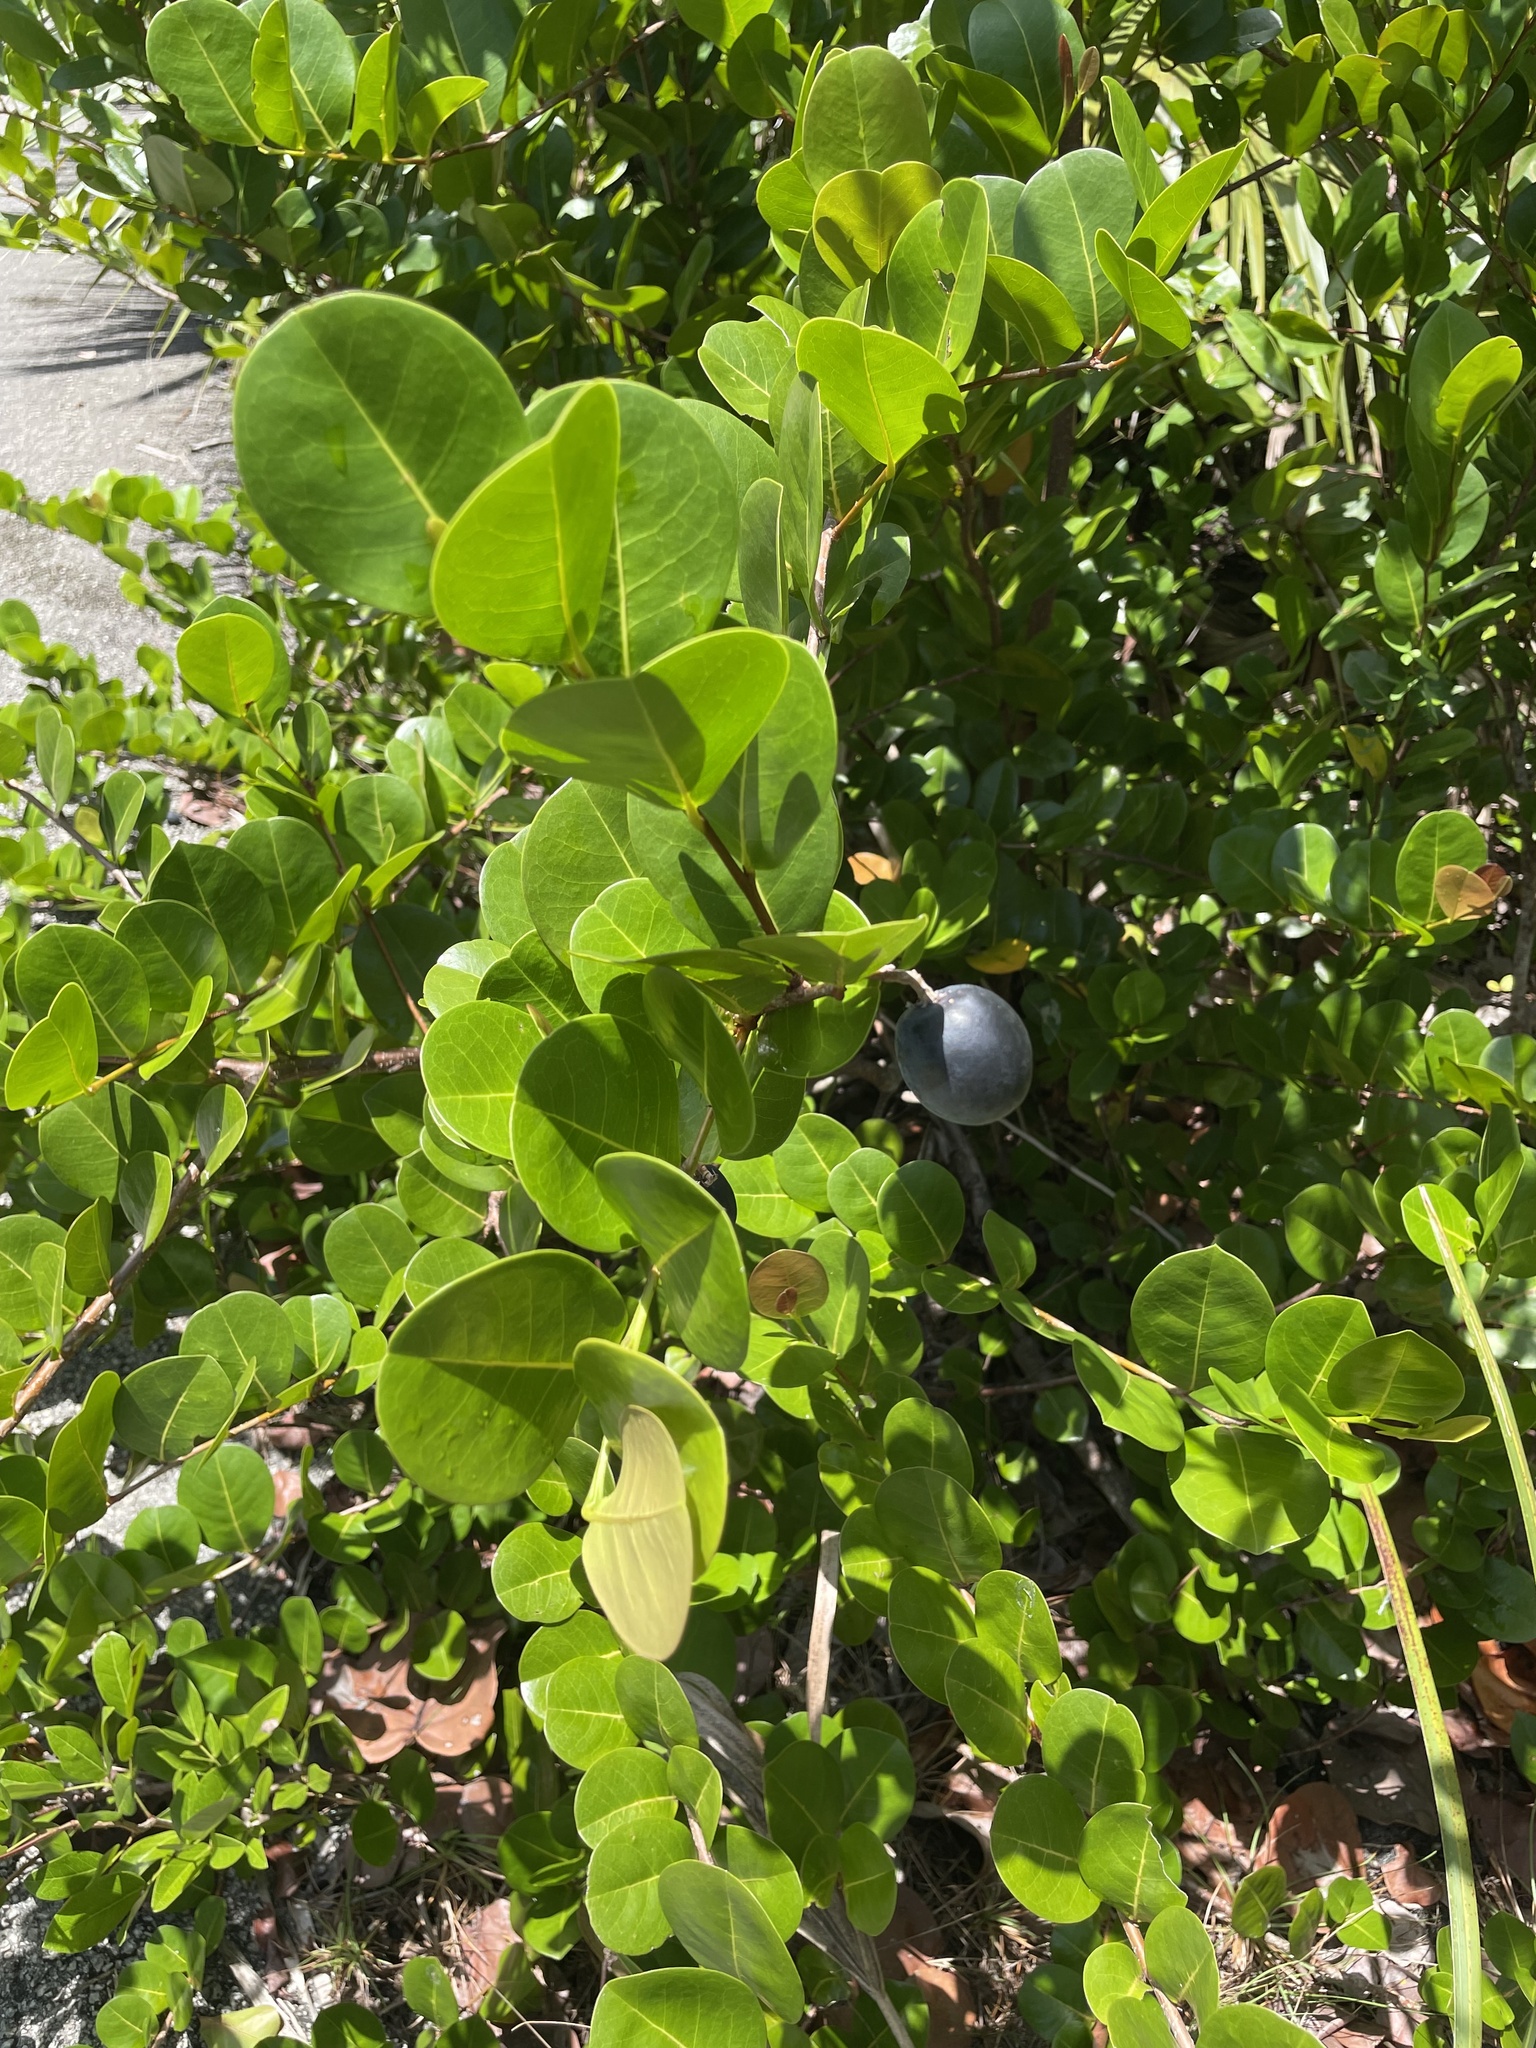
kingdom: Plantae
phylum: Tracheophyta
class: Magnoliopsida
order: Malpighiales
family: Chrysobalanaceae
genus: Chrysobalanus
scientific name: Chrysobalanus icaco
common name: Coco plum
